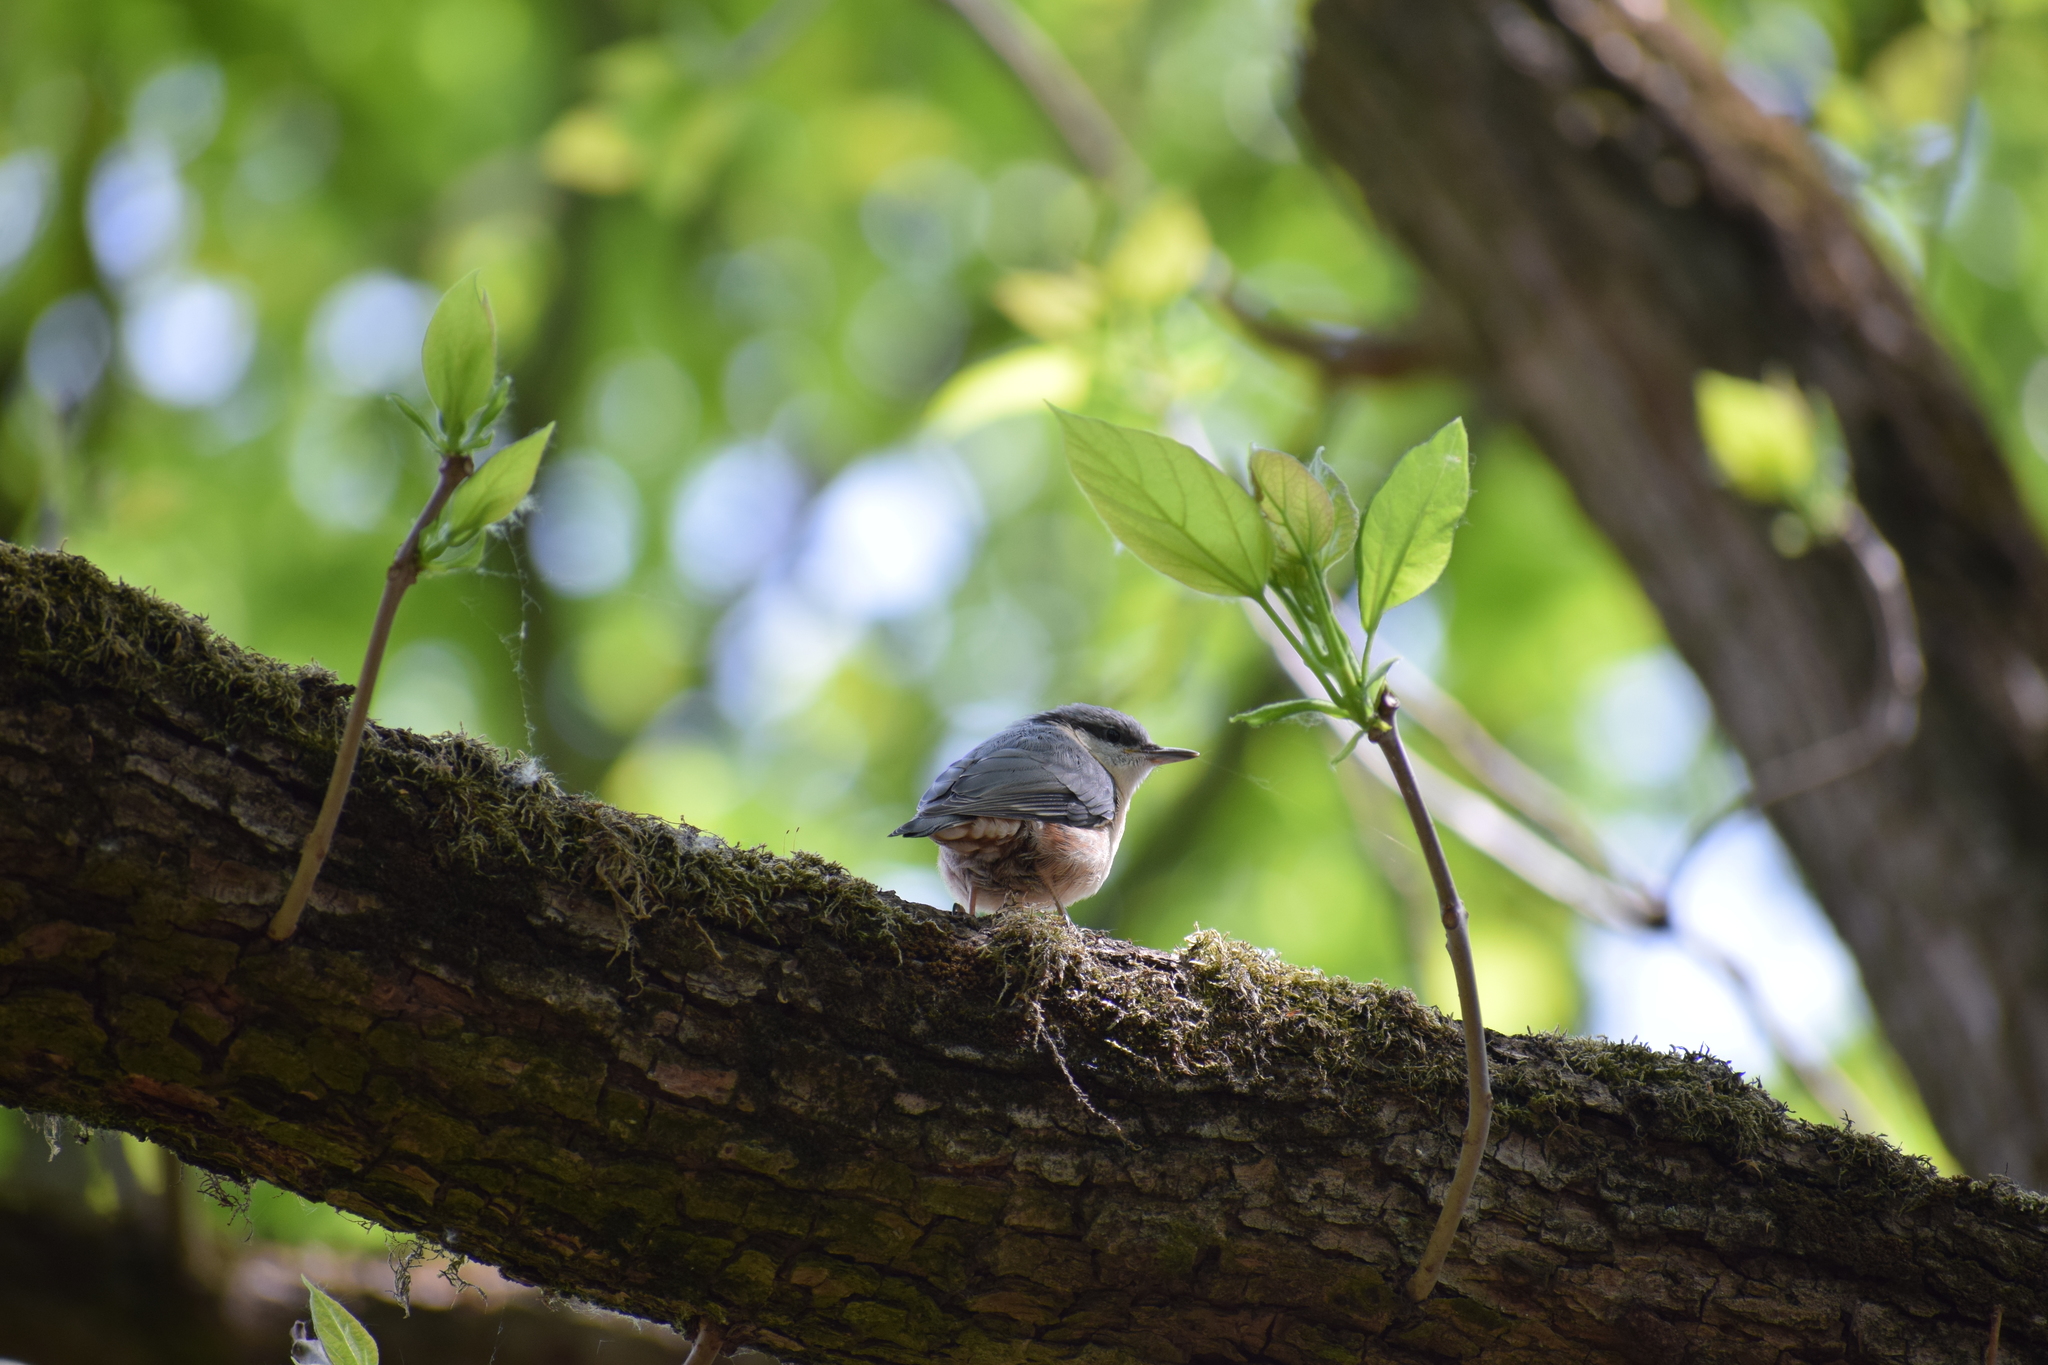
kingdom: Animalia
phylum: Chordata
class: Aves
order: Passeriformes
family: Sittidae
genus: Sitta
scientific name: Sitta europaea
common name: Eurasian nuthatch
